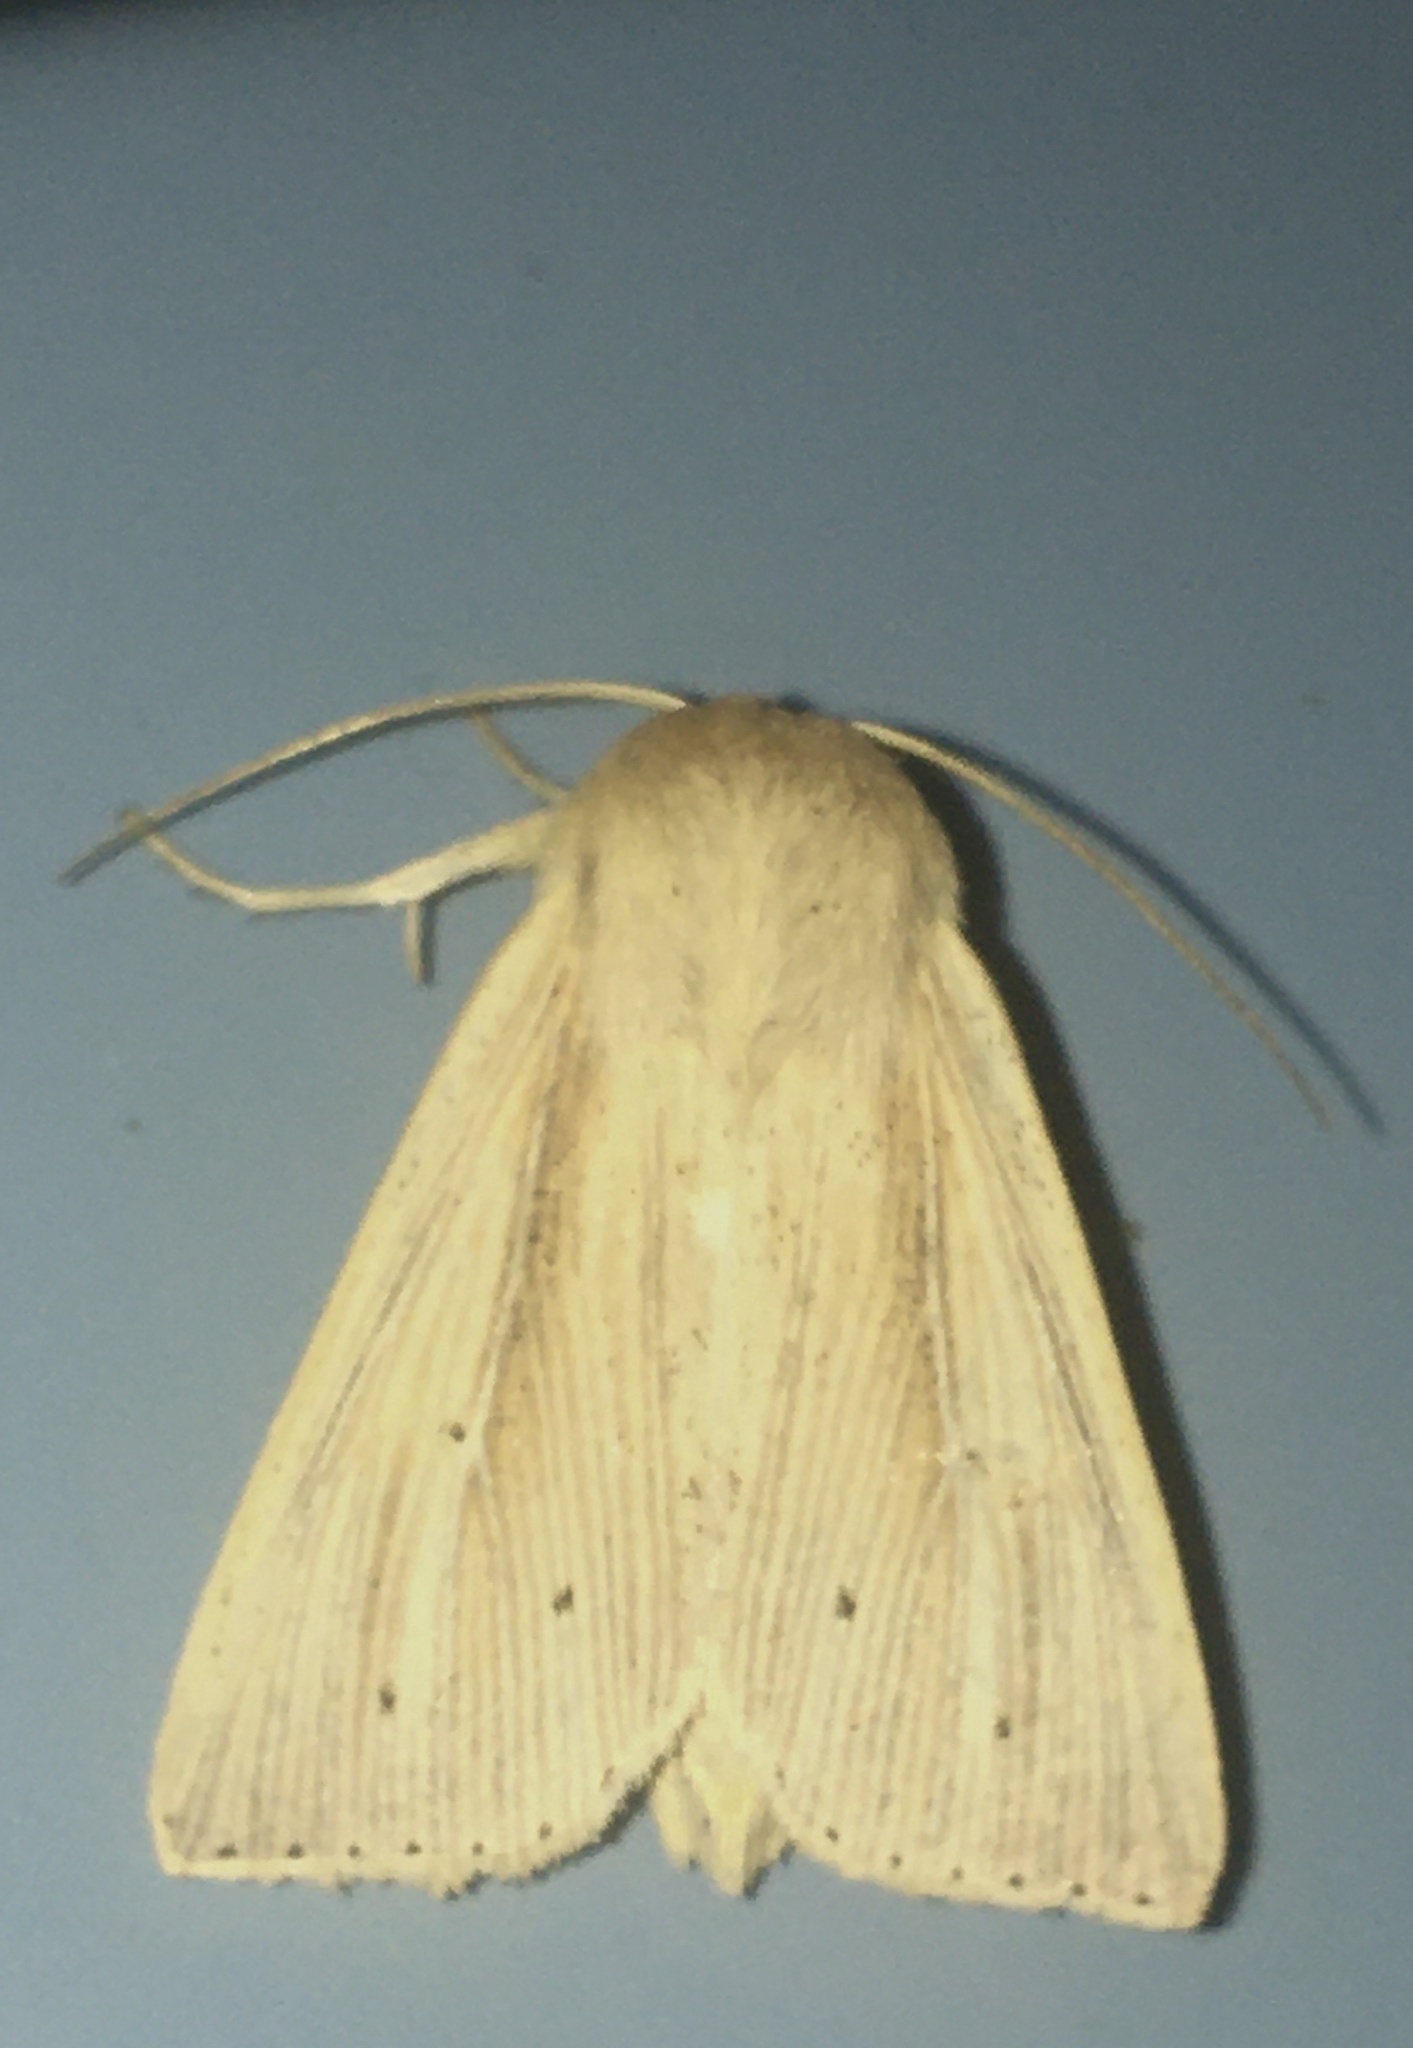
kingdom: Animalia
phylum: Arthropoda
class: Insecta
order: Lepidoptera
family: Noctuidae
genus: Mythimna
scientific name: Mythimna impura
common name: Smoky wainscot
